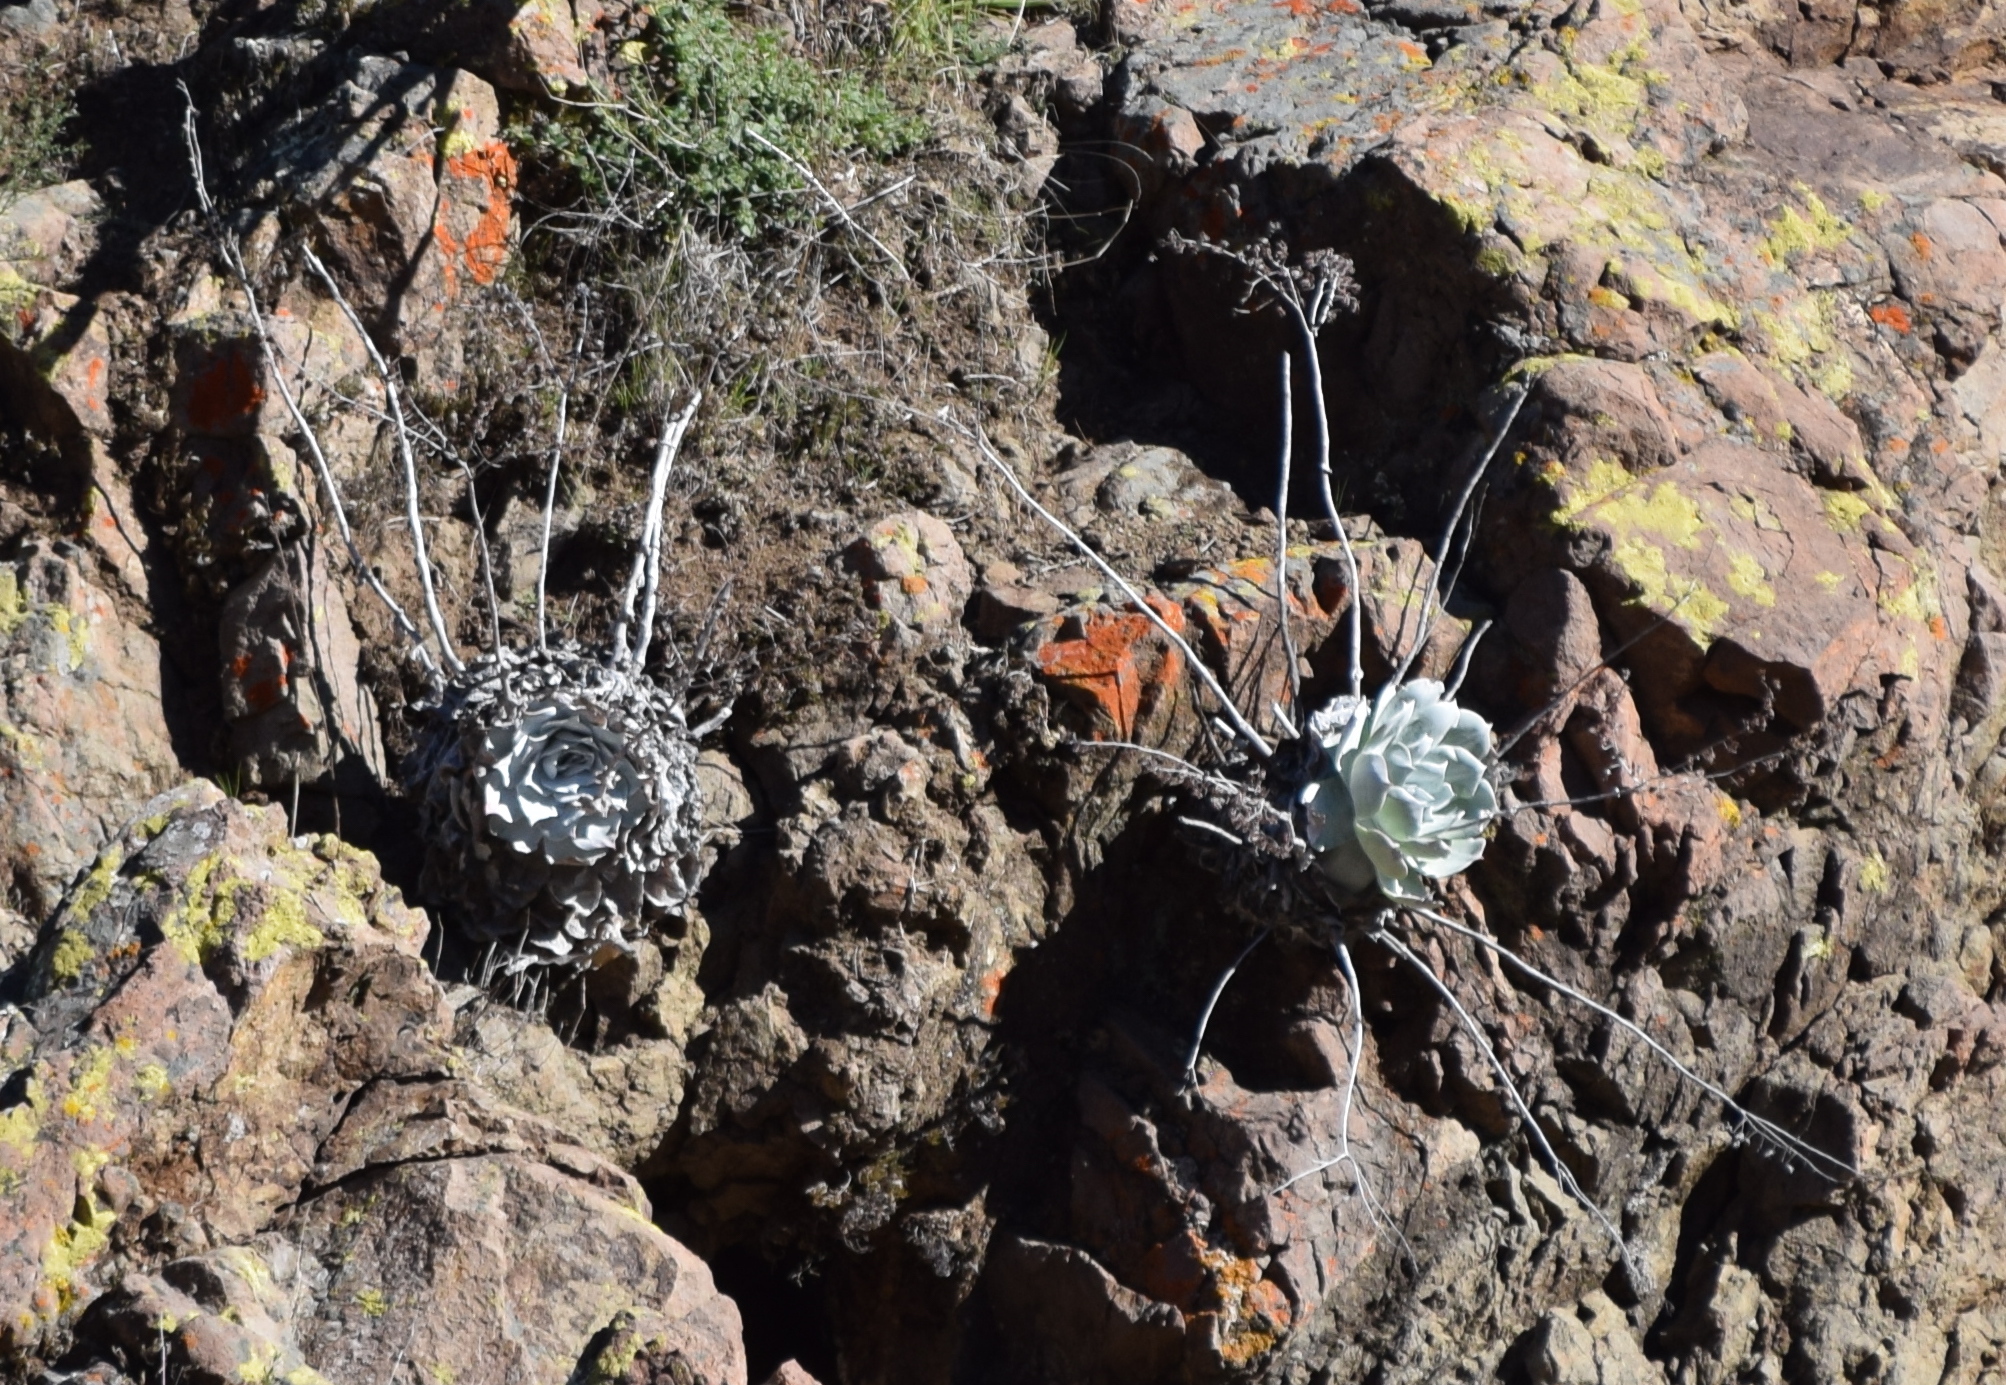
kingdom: Plantae
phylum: Tracheophyta
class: Magnoliopsida
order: Saxifragales
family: Crassulaceae
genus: Dudleya
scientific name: Dudleya pulverulenta
